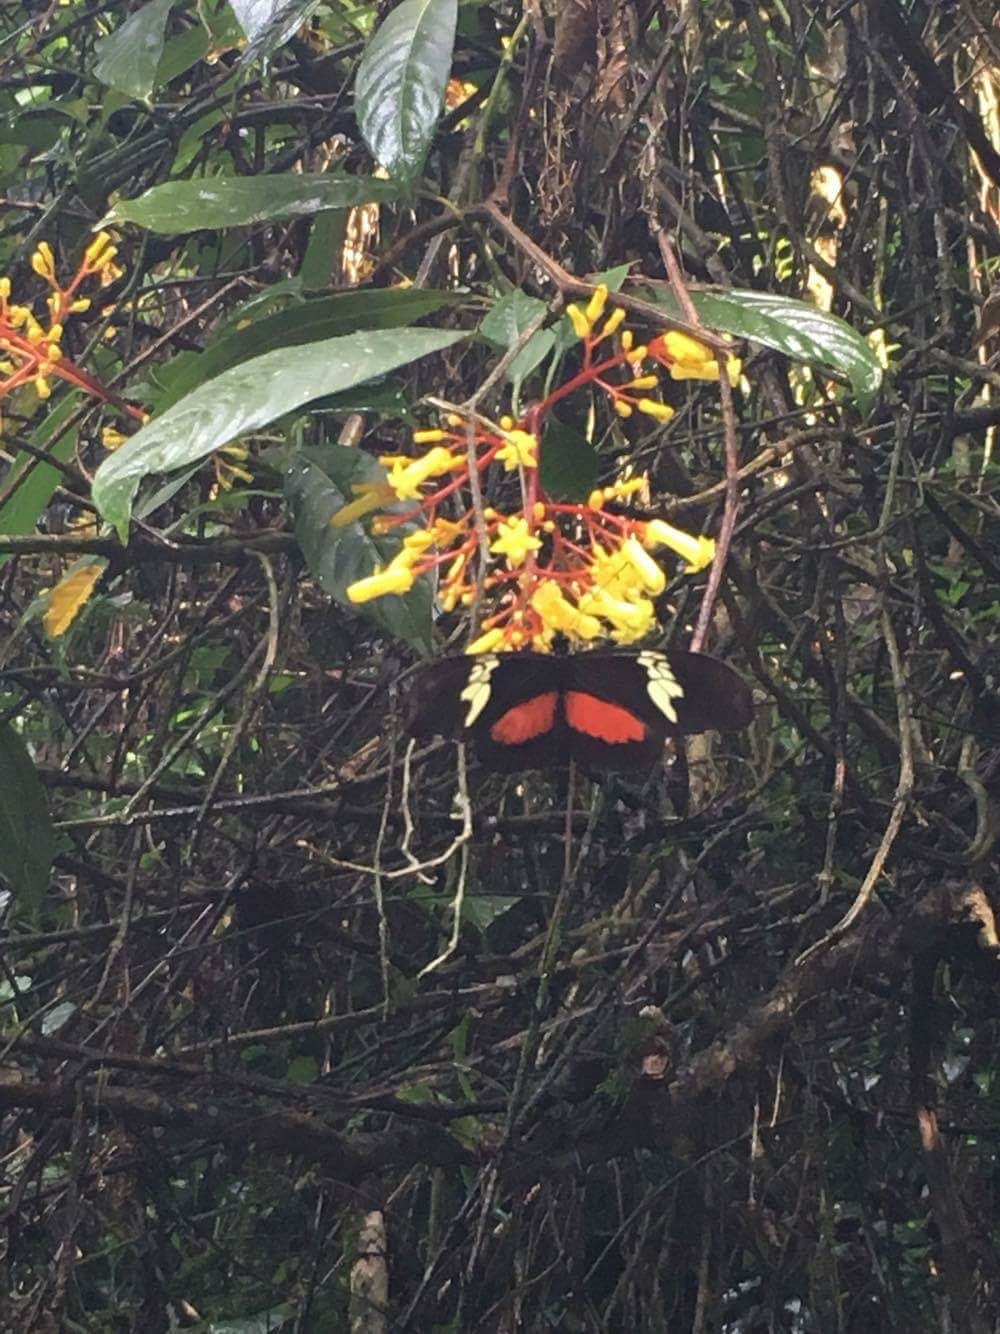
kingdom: Animalia
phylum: Arthropoda
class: Insecta
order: Lepidoptera
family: Nymphalidae
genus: Heliconius
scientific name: Heliconius hortense
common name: Mexican longwing
